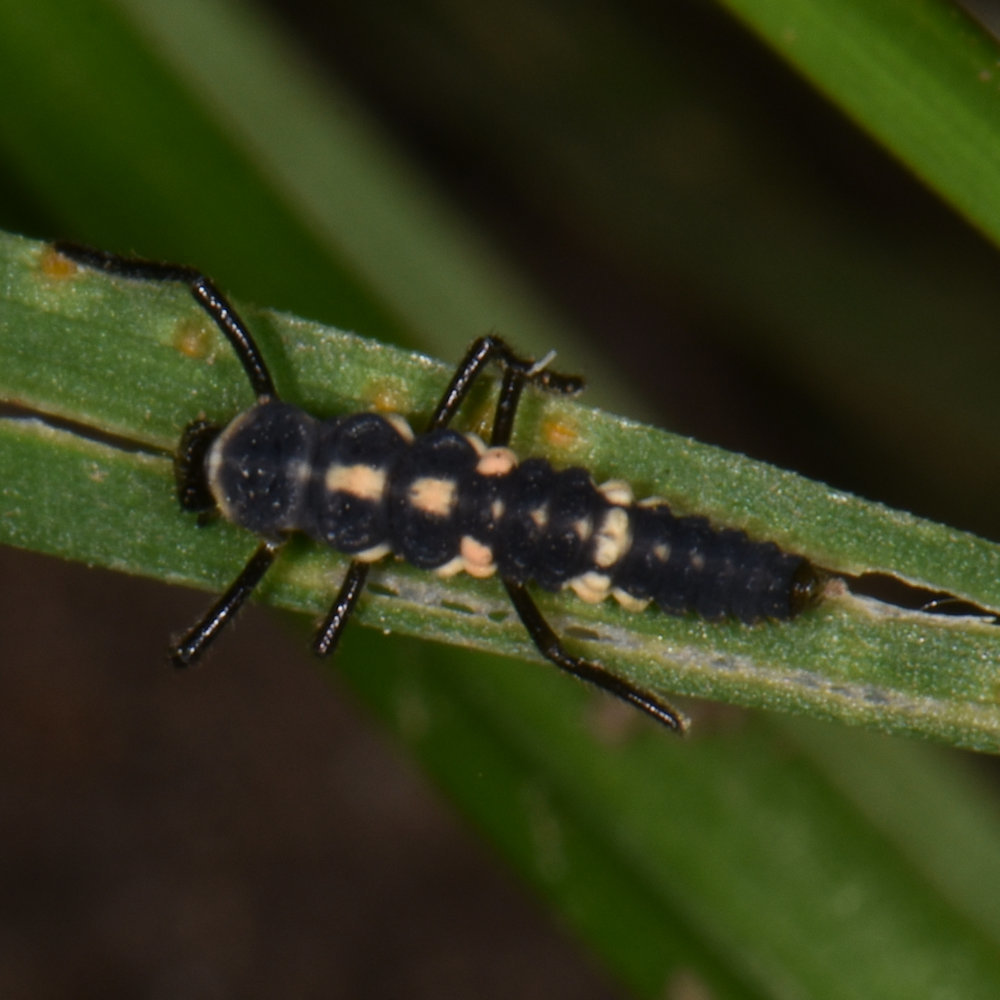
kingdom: Animalia
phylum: Arthropoda
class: Insecta
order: Coleoptera
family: Coccinellidae
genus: Cycloneda
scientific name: Cycloneda munda
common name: Polished lady beetle
